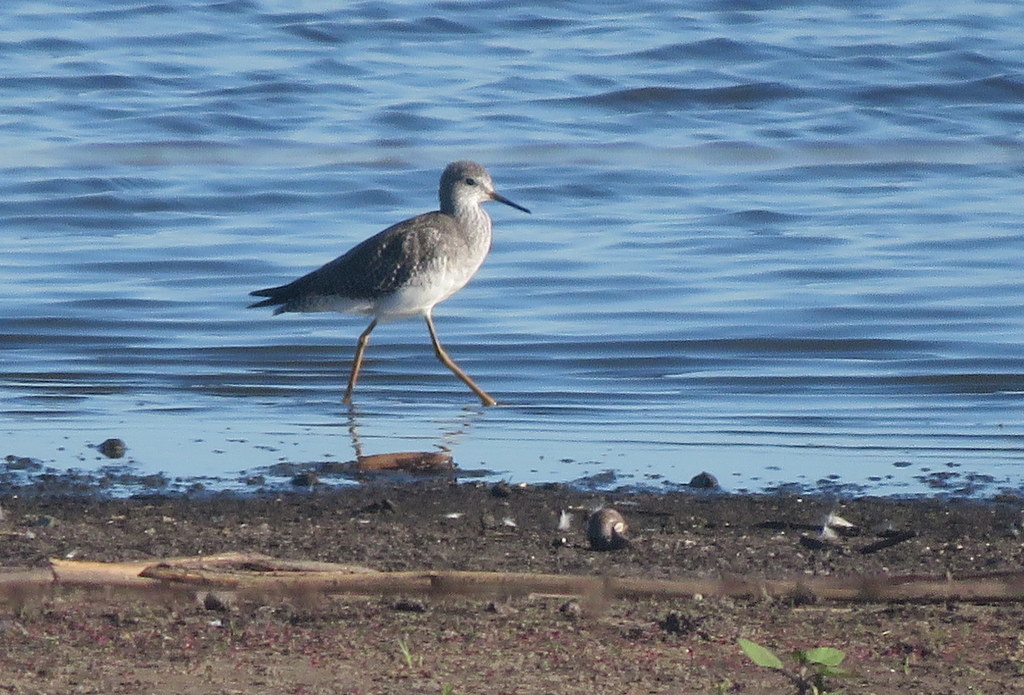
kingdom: Animalia
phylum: Chordata
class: Aves
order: Charadriiformes
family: Scolopacidae
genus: Tringa
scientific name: Tringa flavipes
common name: Lesser yellowlegs
